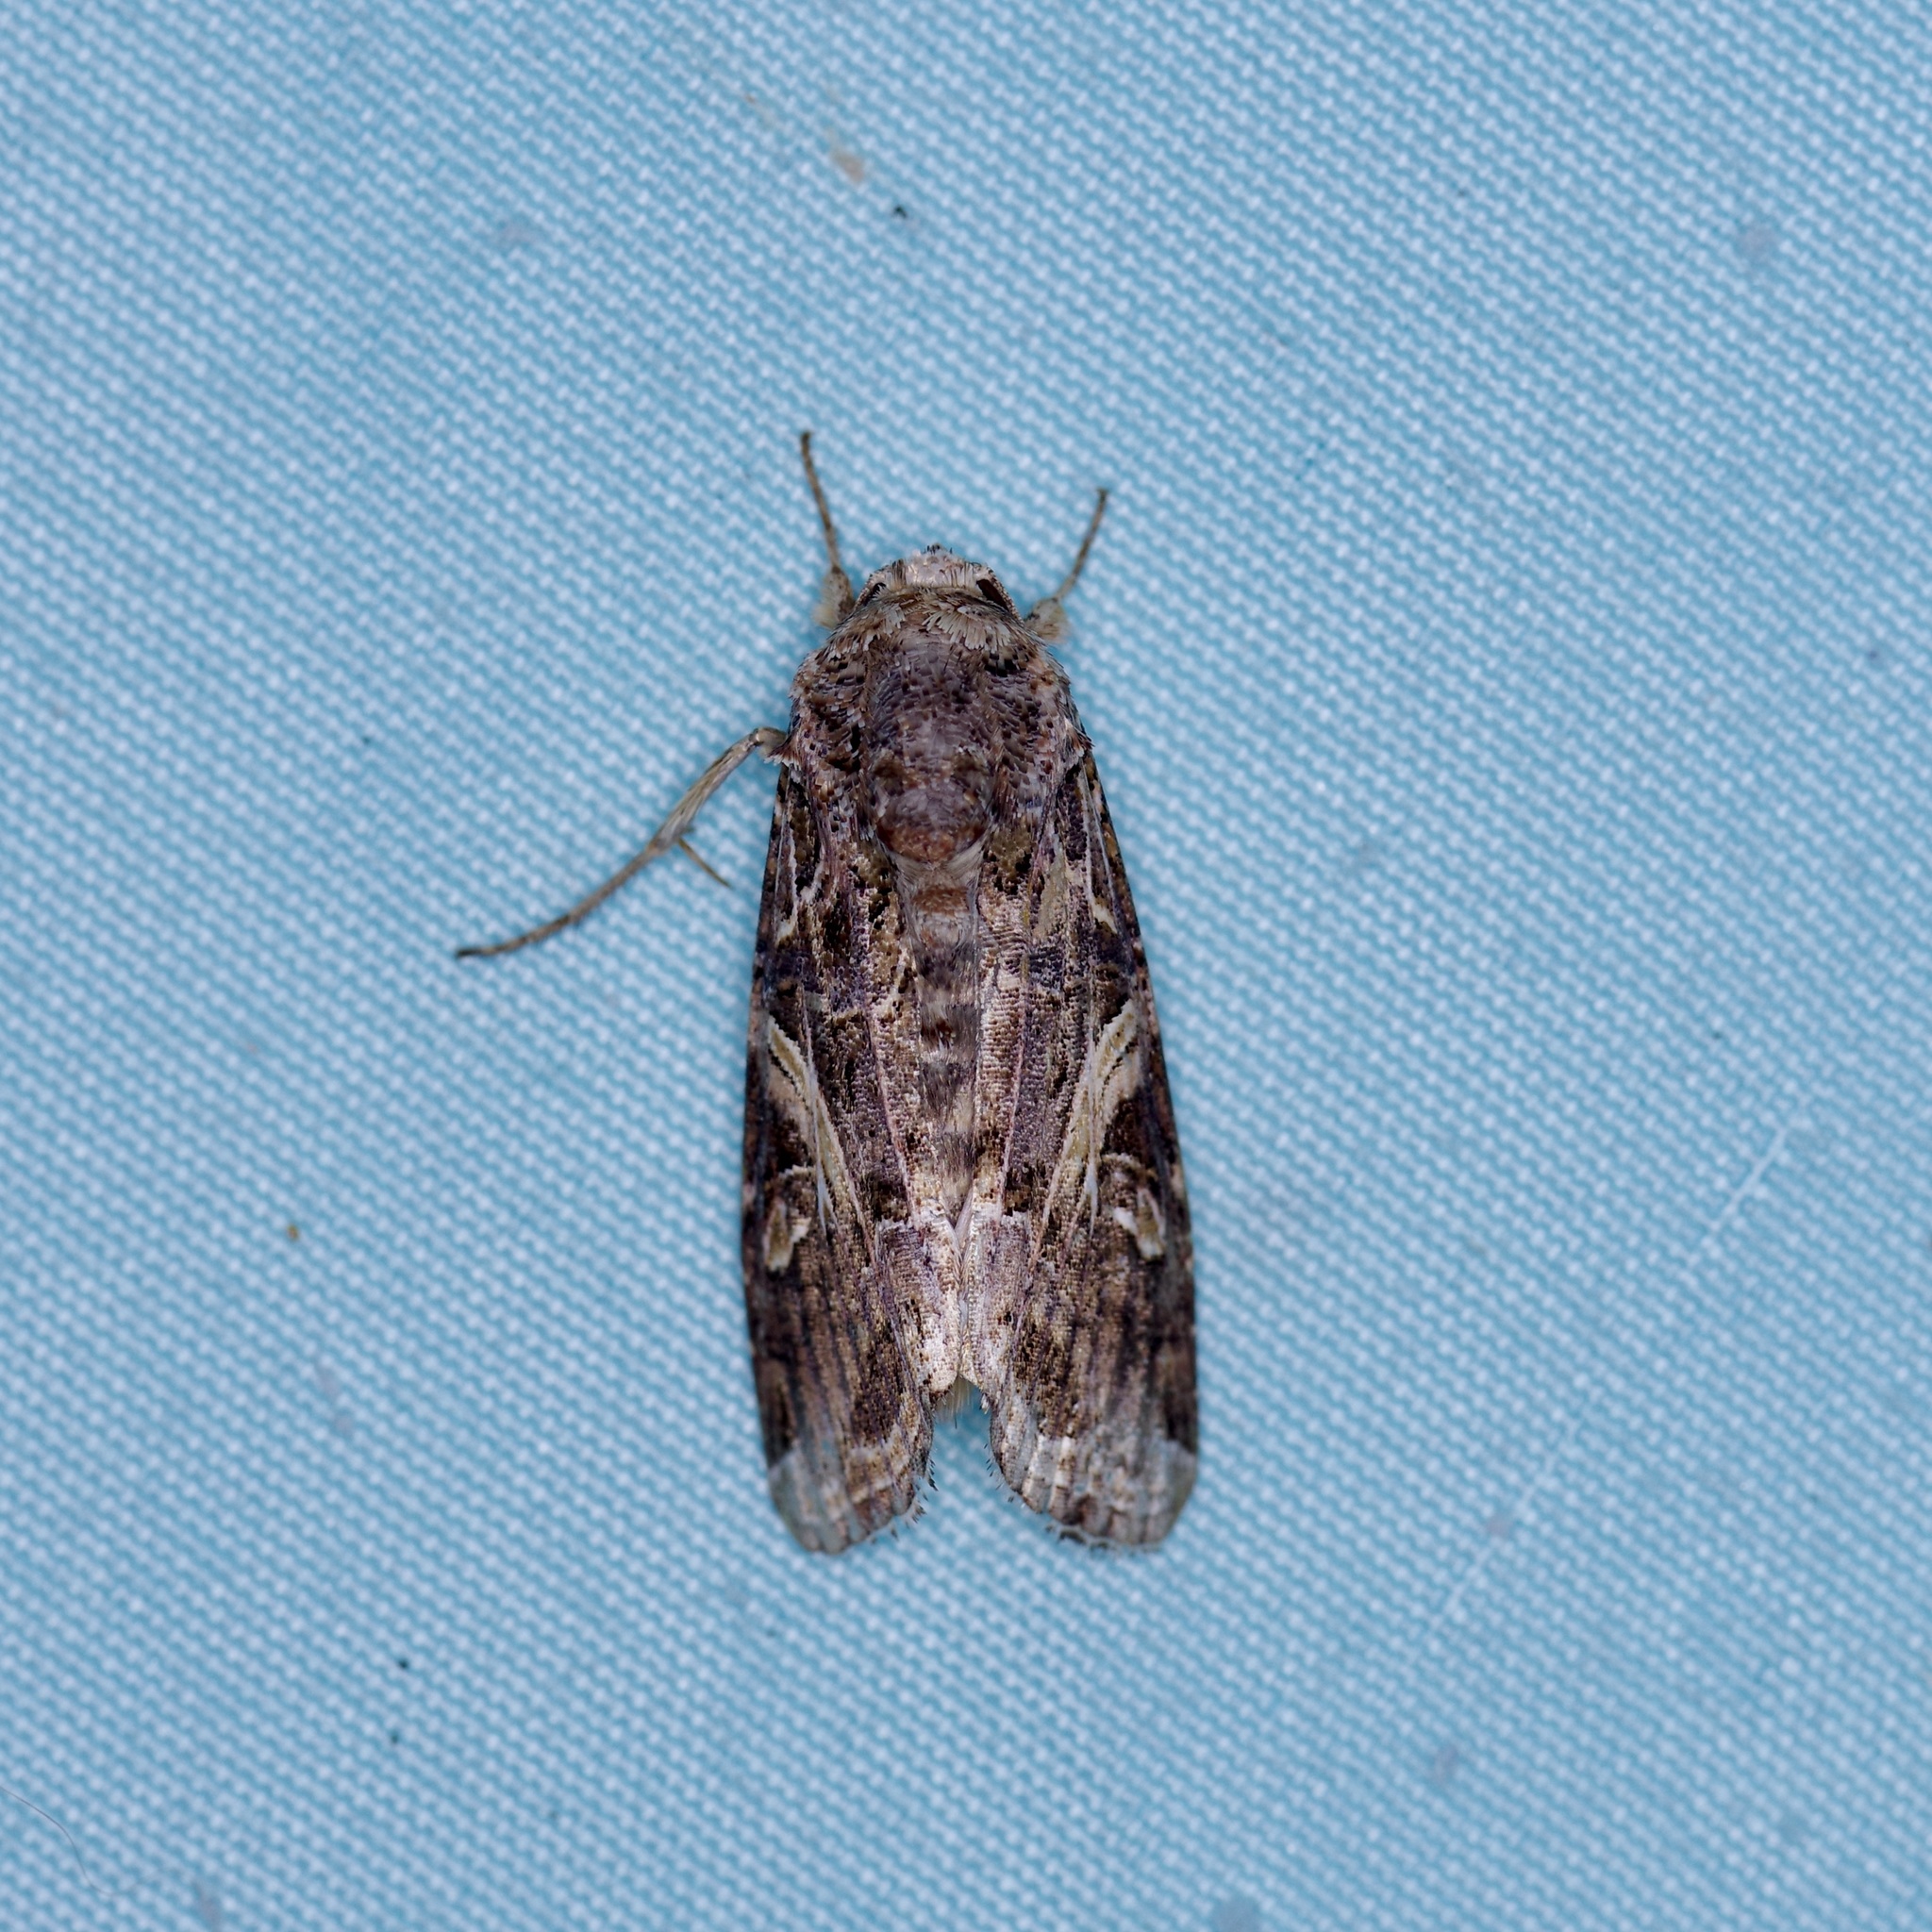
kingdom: Animalia
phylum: Arthropoda
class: Insecta
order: Lepidoptera
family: Noctuidae
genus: Spodoptera
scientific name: Spodoptera ornithogalli
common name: Yellow-striped armyworm
